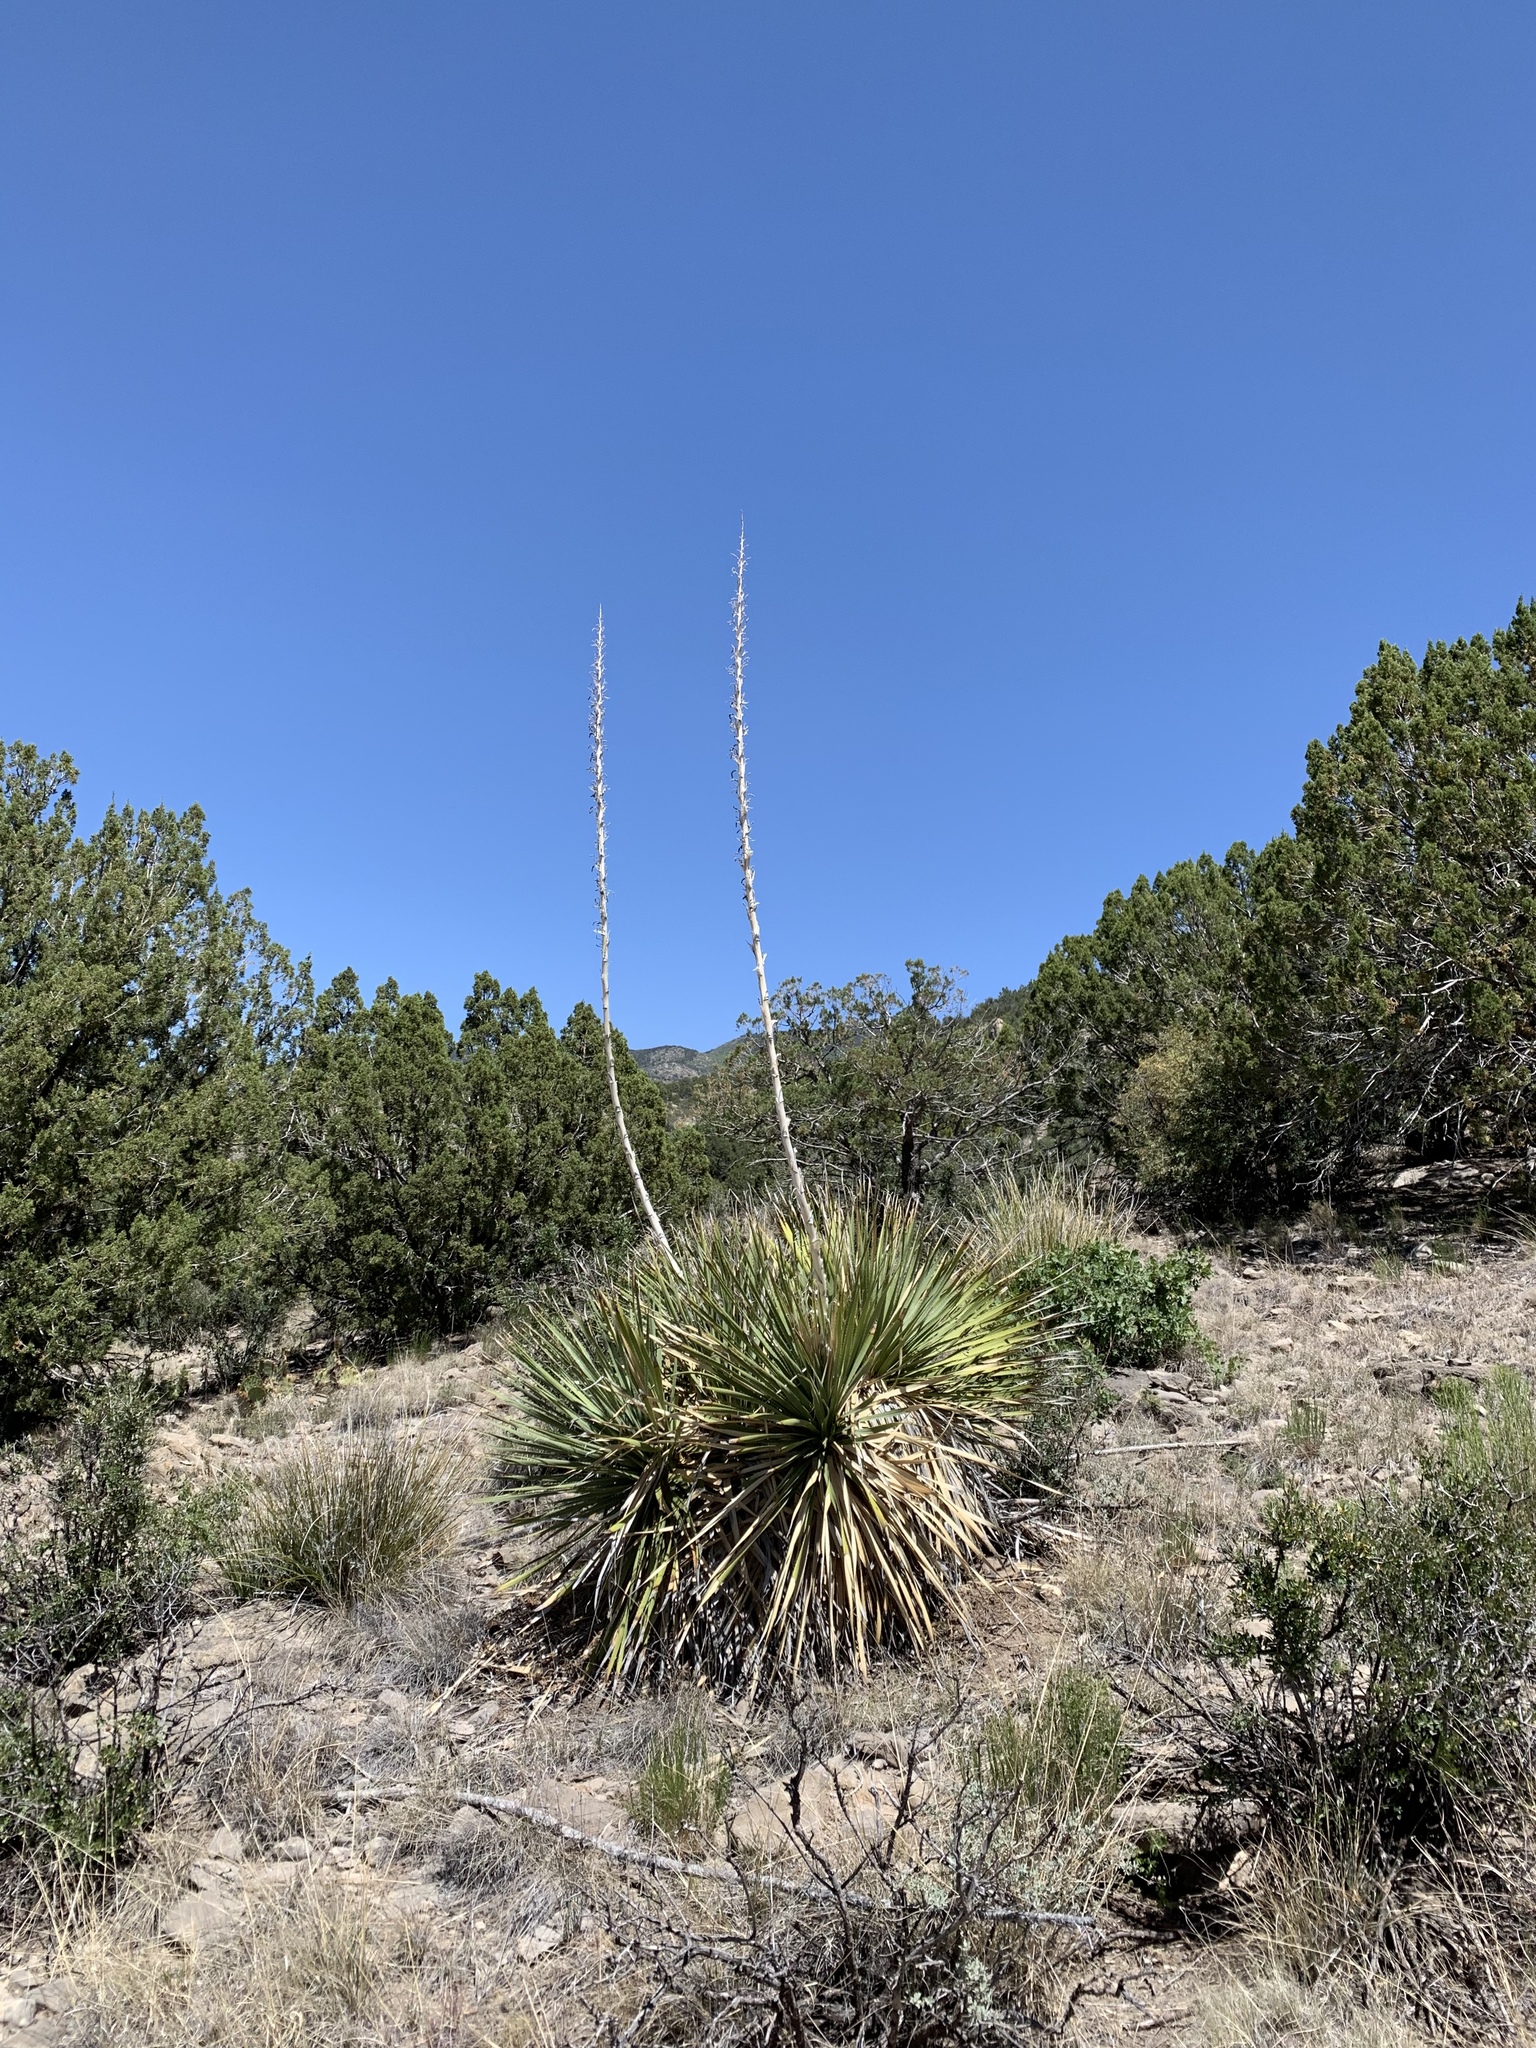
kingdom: Plantae
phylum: Tracheophyta
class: Liliopsida
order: Asparagales
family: Asparagaceae
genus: Dasylirion
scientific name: Dasylirion wheeleri
